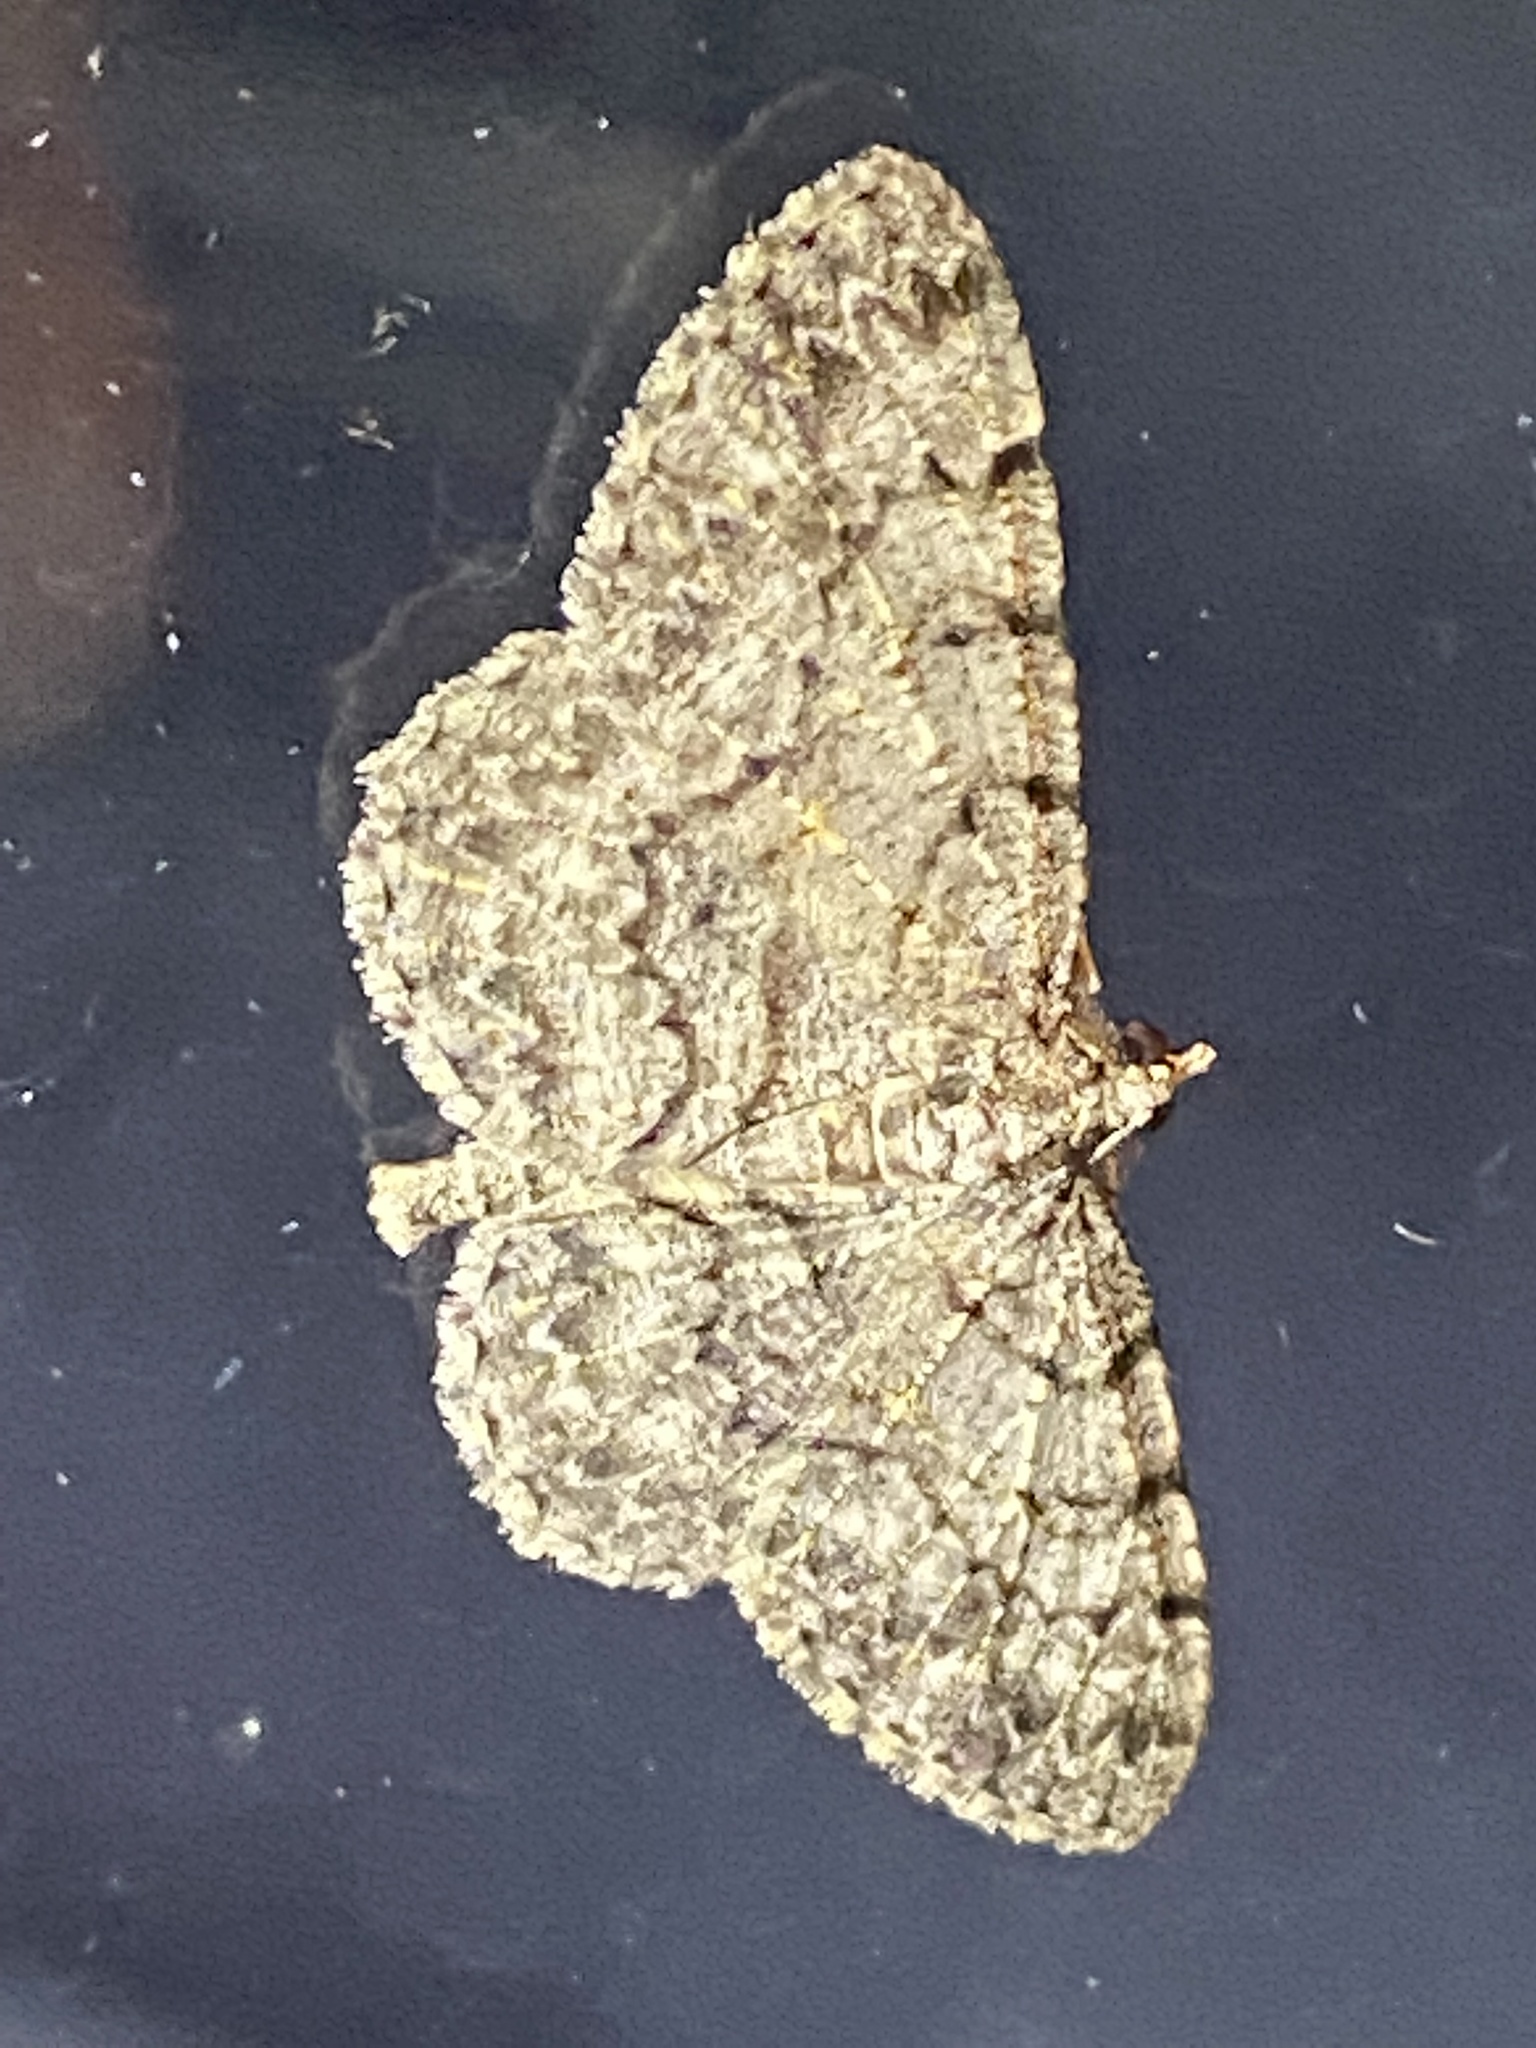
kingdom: Animalia
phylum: Arthropoda
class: Insecta
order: Lepidoptera
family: Geometridae
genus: Protoboarmia
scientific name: Protoboarmia porcelaria
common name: Porcelain gray
